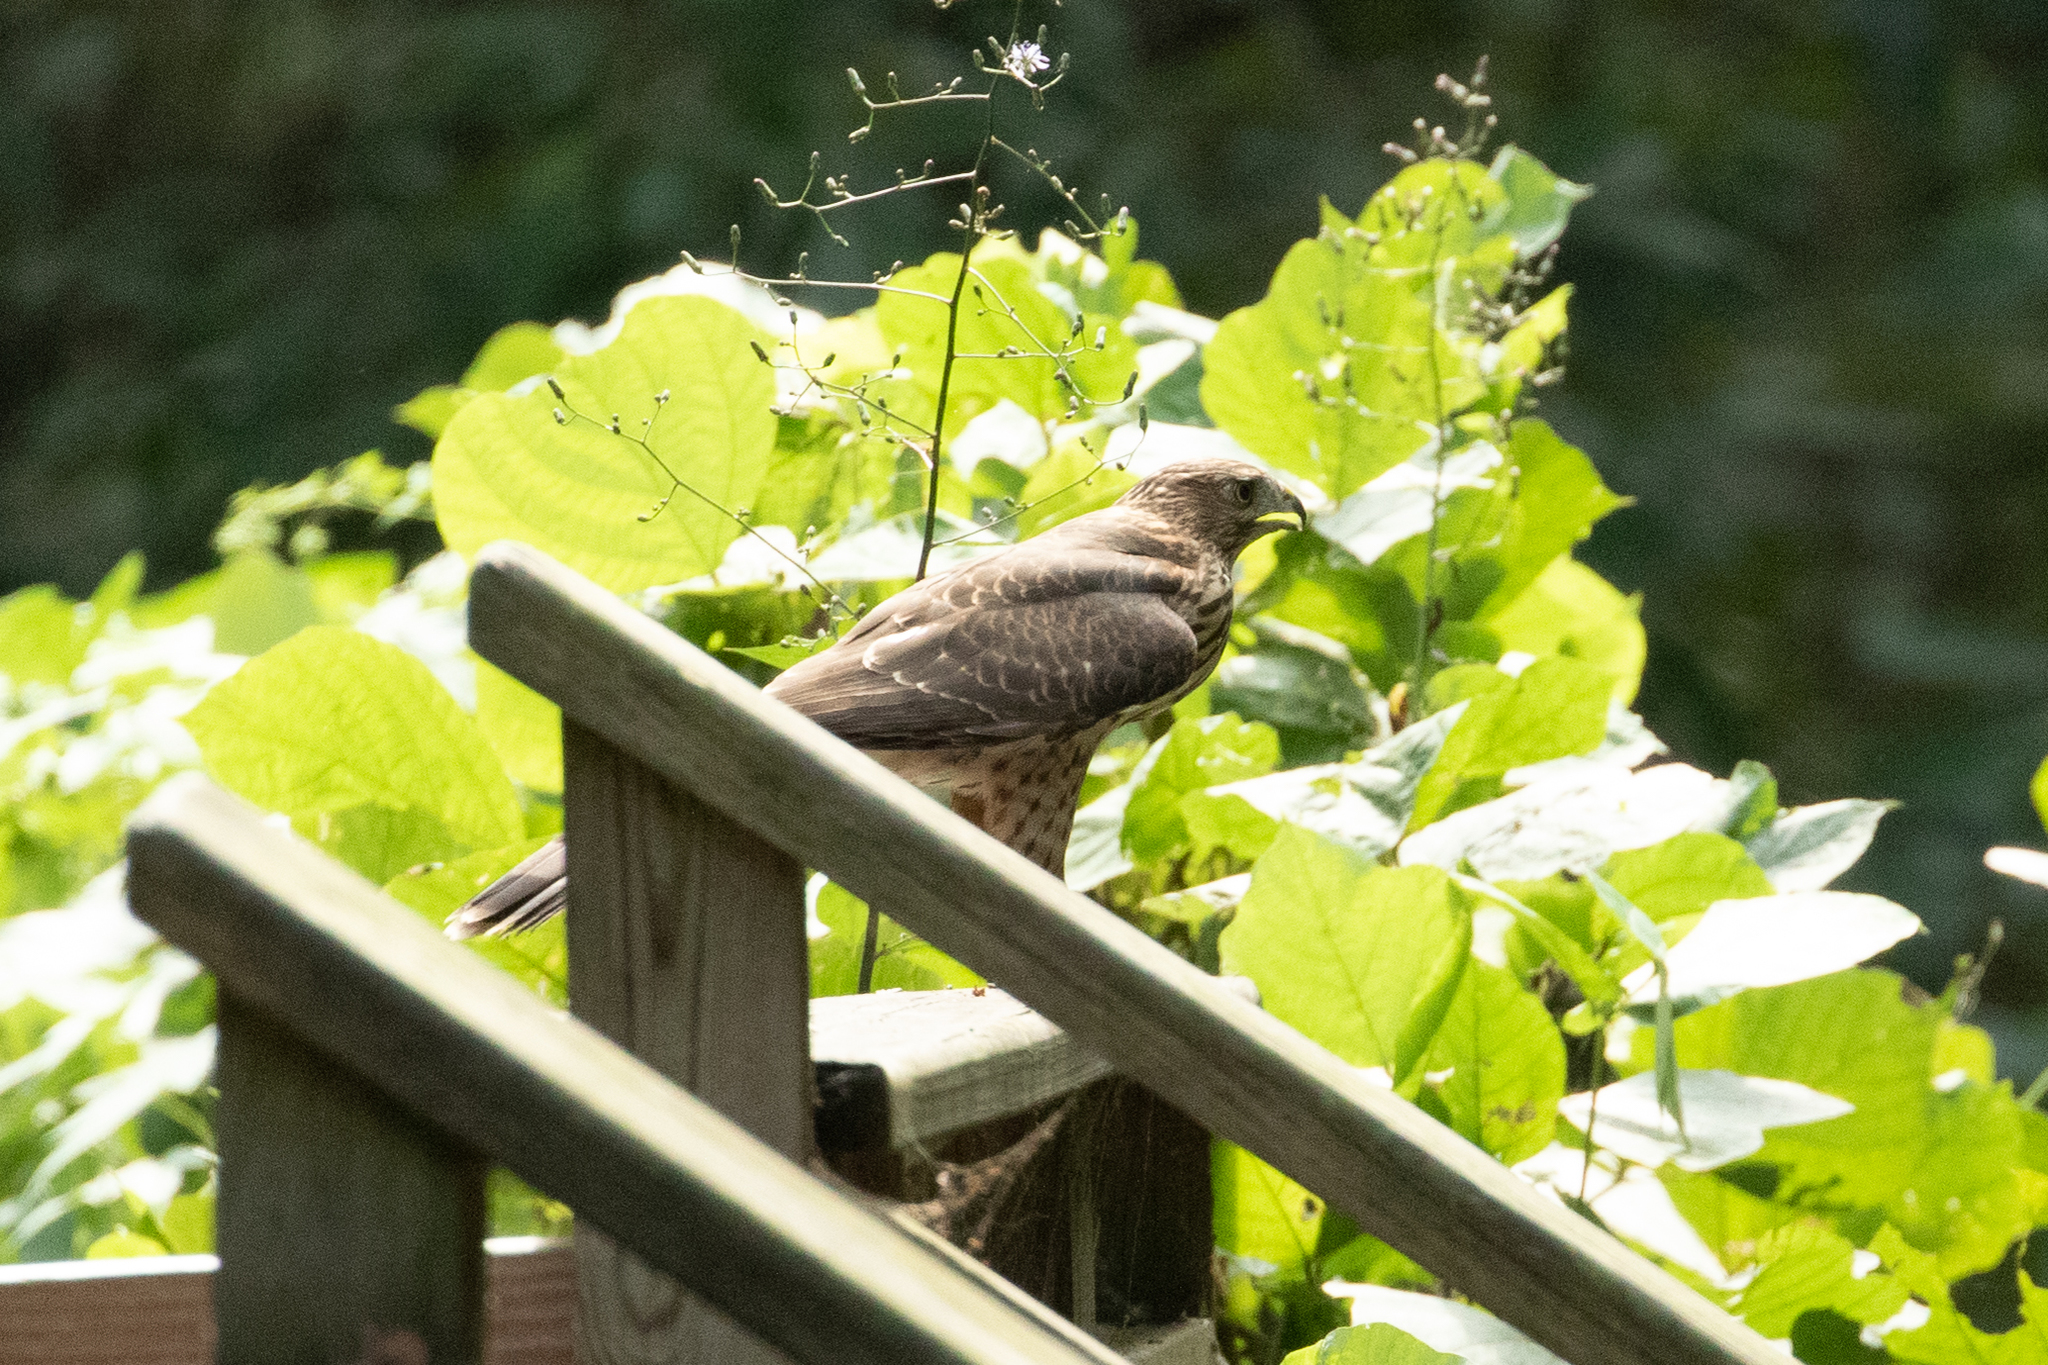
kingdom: Animalia
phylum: Chordata
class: Aves
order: Accipitriformes
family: Accipitridae
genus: Accipiter
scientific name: Accipiter cooperii
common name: Cooper's hawk
